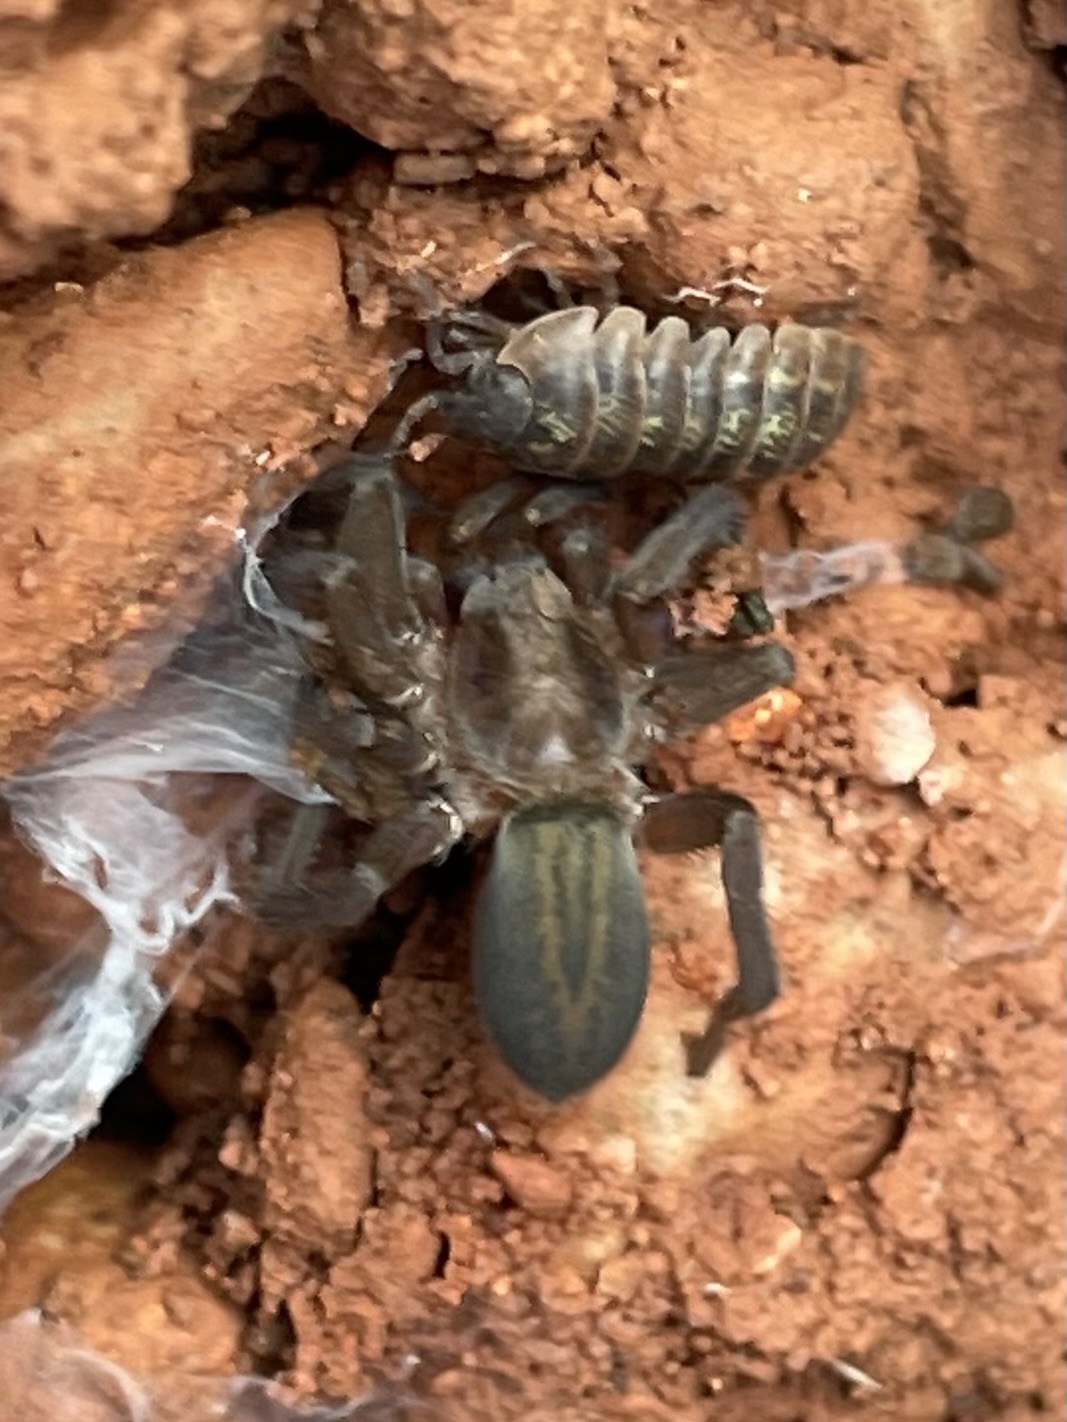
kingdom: Animalia
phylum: Arthropoda
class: Arachnida
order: Araneae
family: Miturgidae
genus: Teminius
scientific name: Teminius affinis
